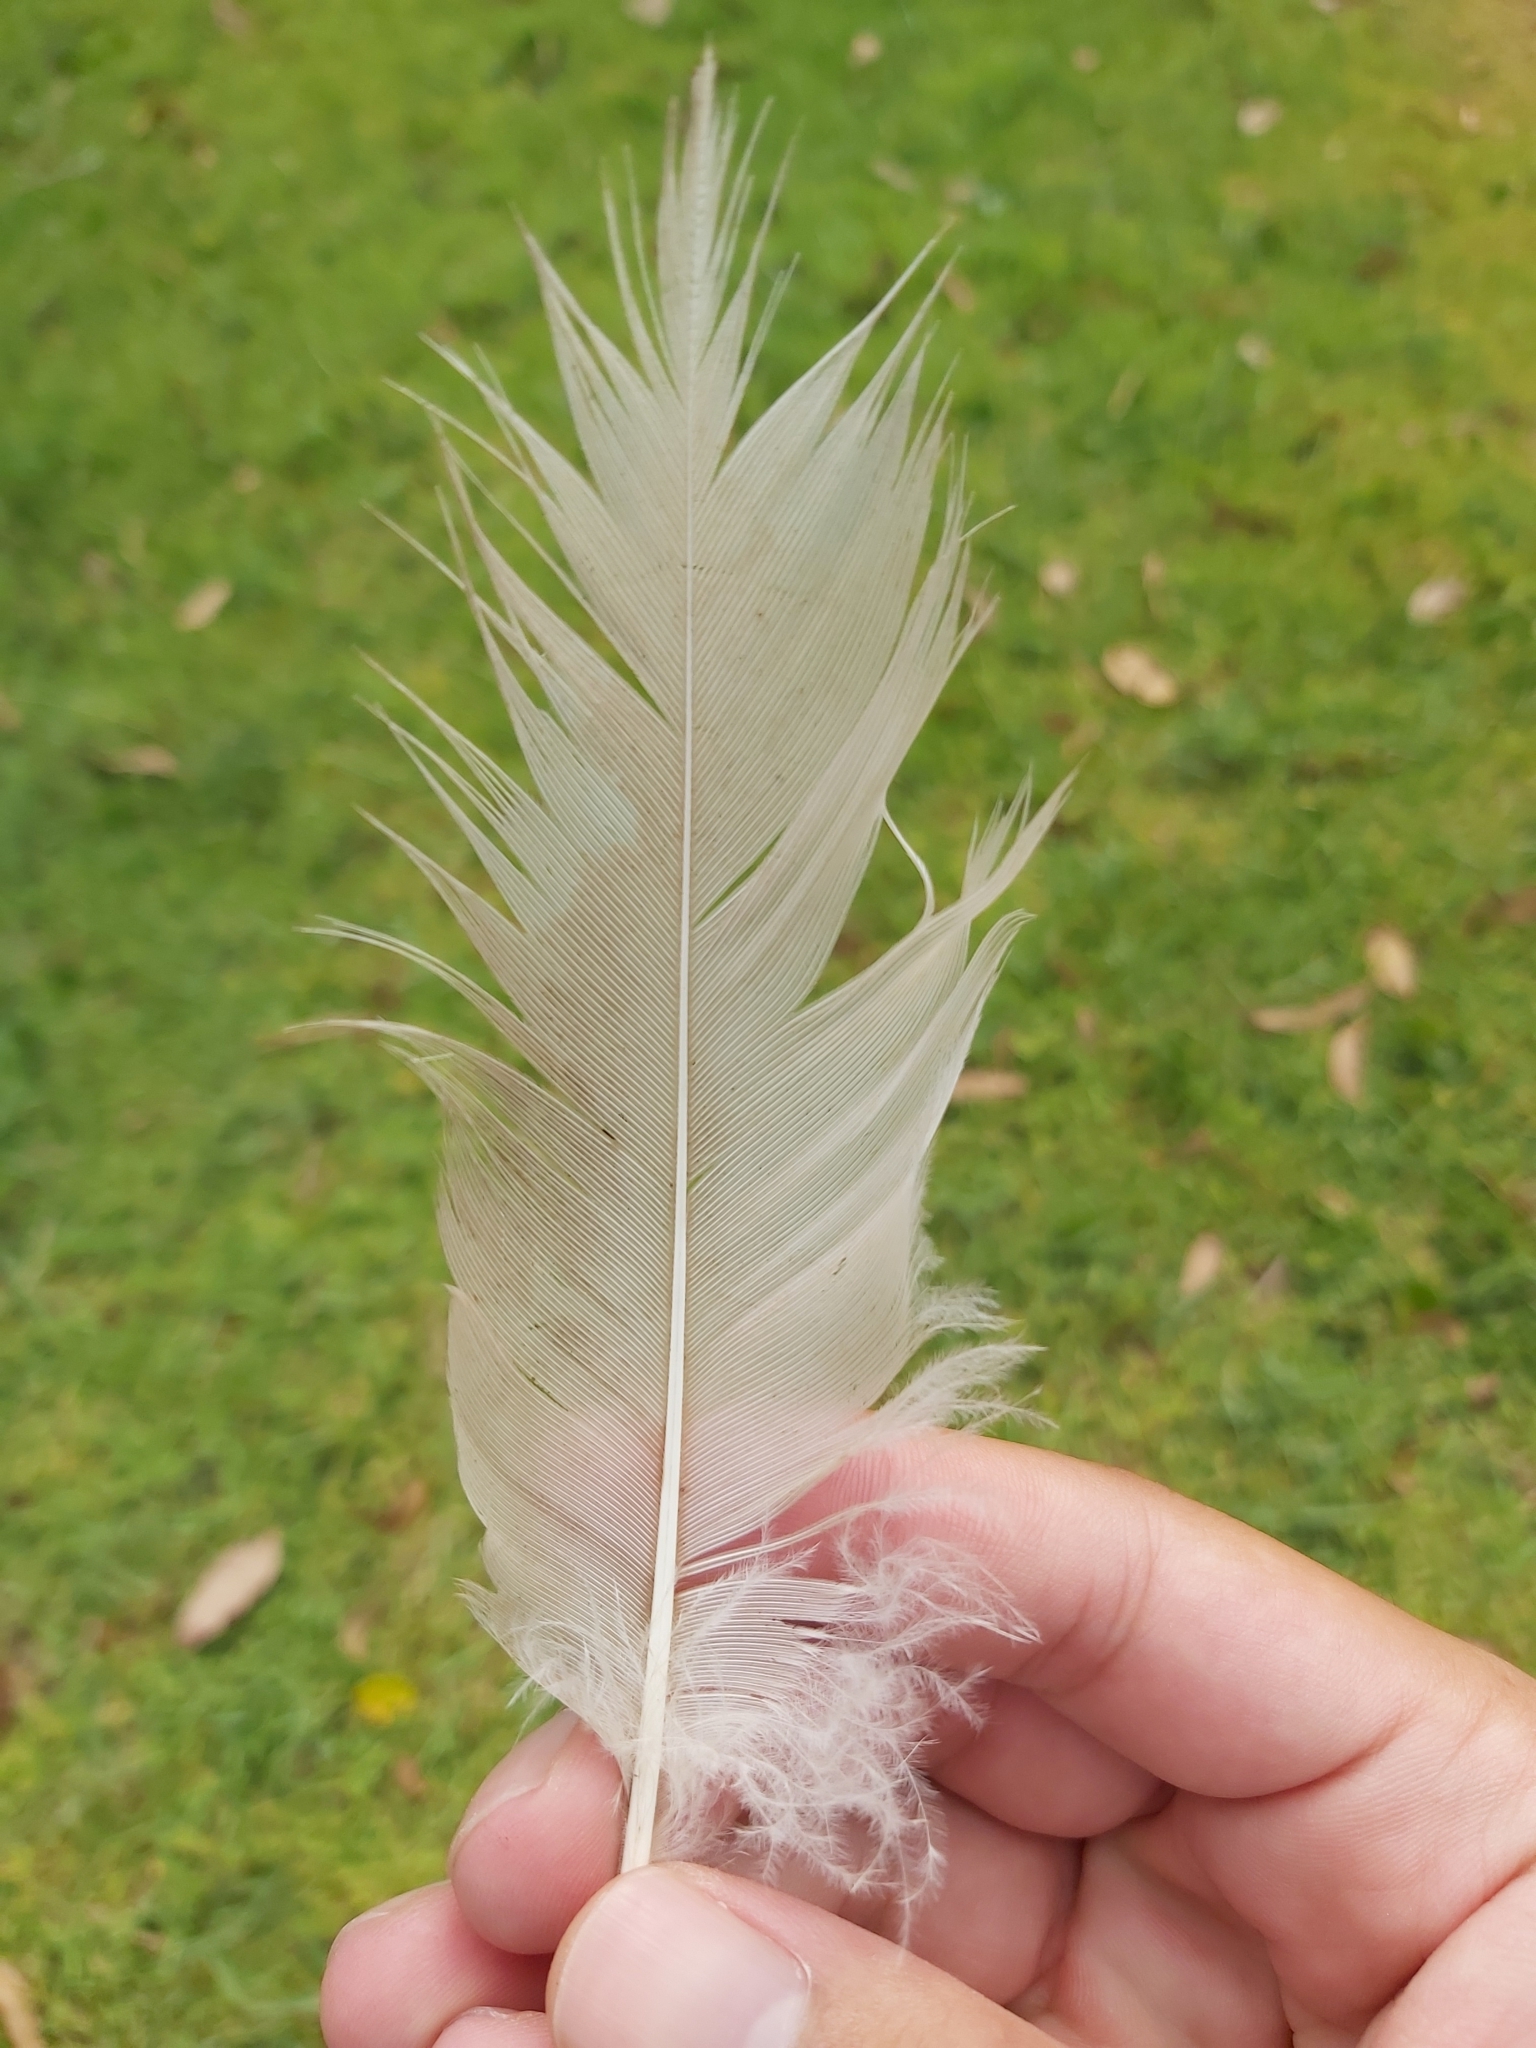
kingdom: Animalia
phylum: Chordata
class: Aves
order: Pelecaniformes
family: Threskiornithidae
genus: Threskiornis
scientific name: Threskiornis molucca
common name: Australian white ibis
